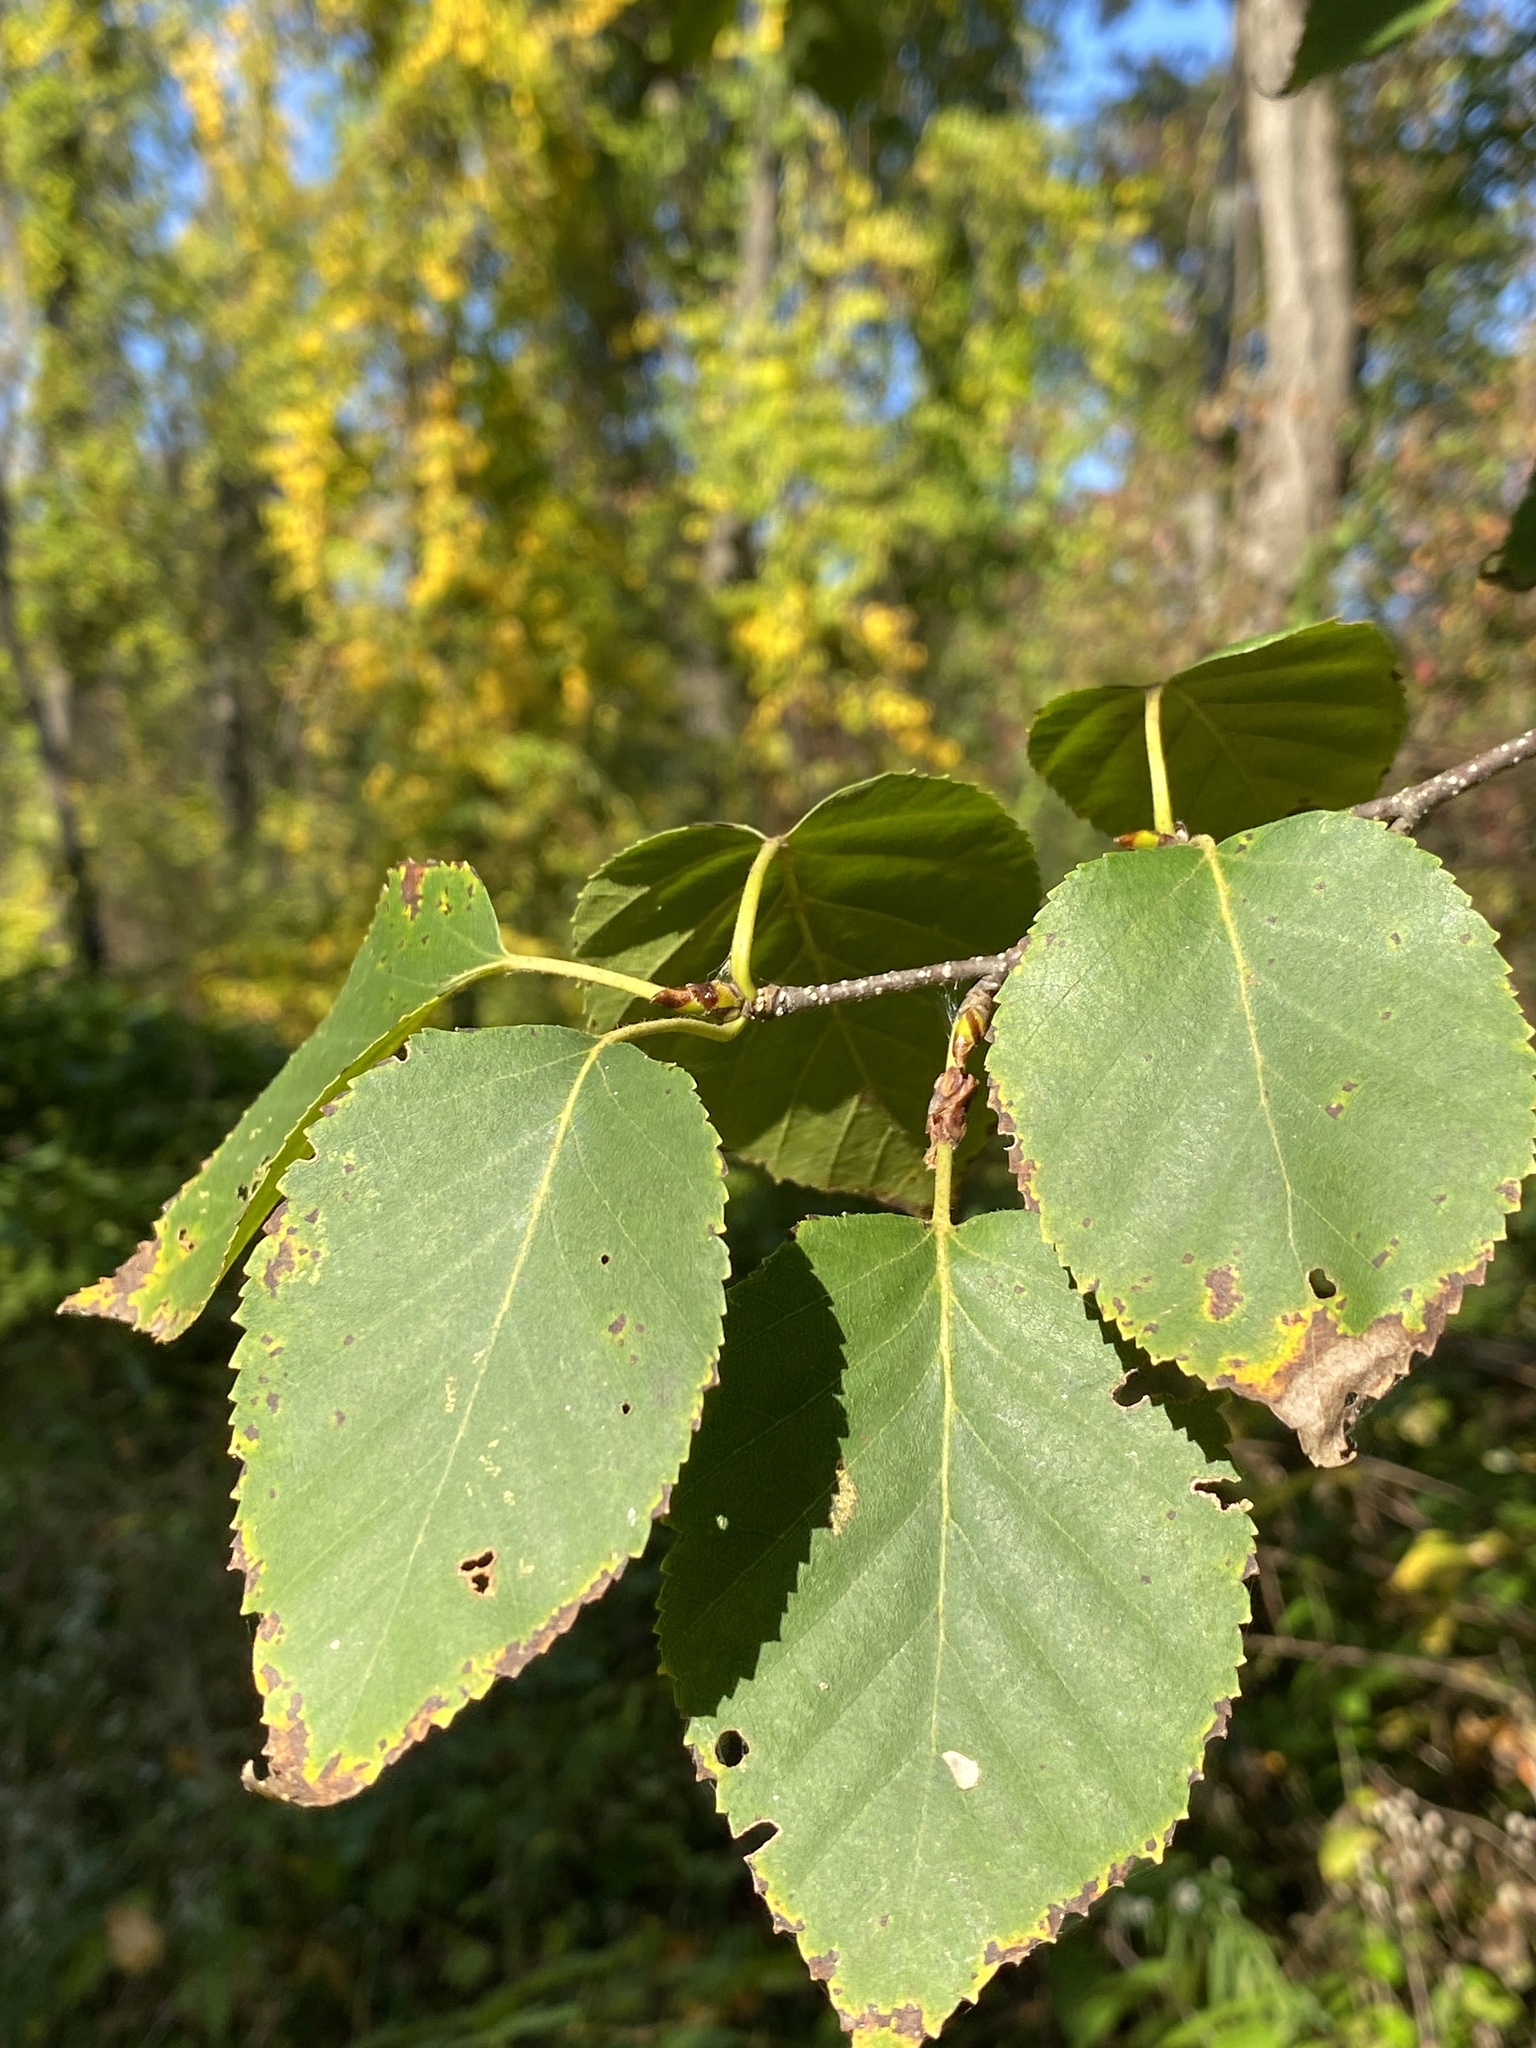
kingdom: Plantae
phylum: Tracheophyta
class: Magnoliopsida
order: Fagales
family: Betulaceae
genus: Betula
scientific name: Betula papyrifera
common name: Paper birch
